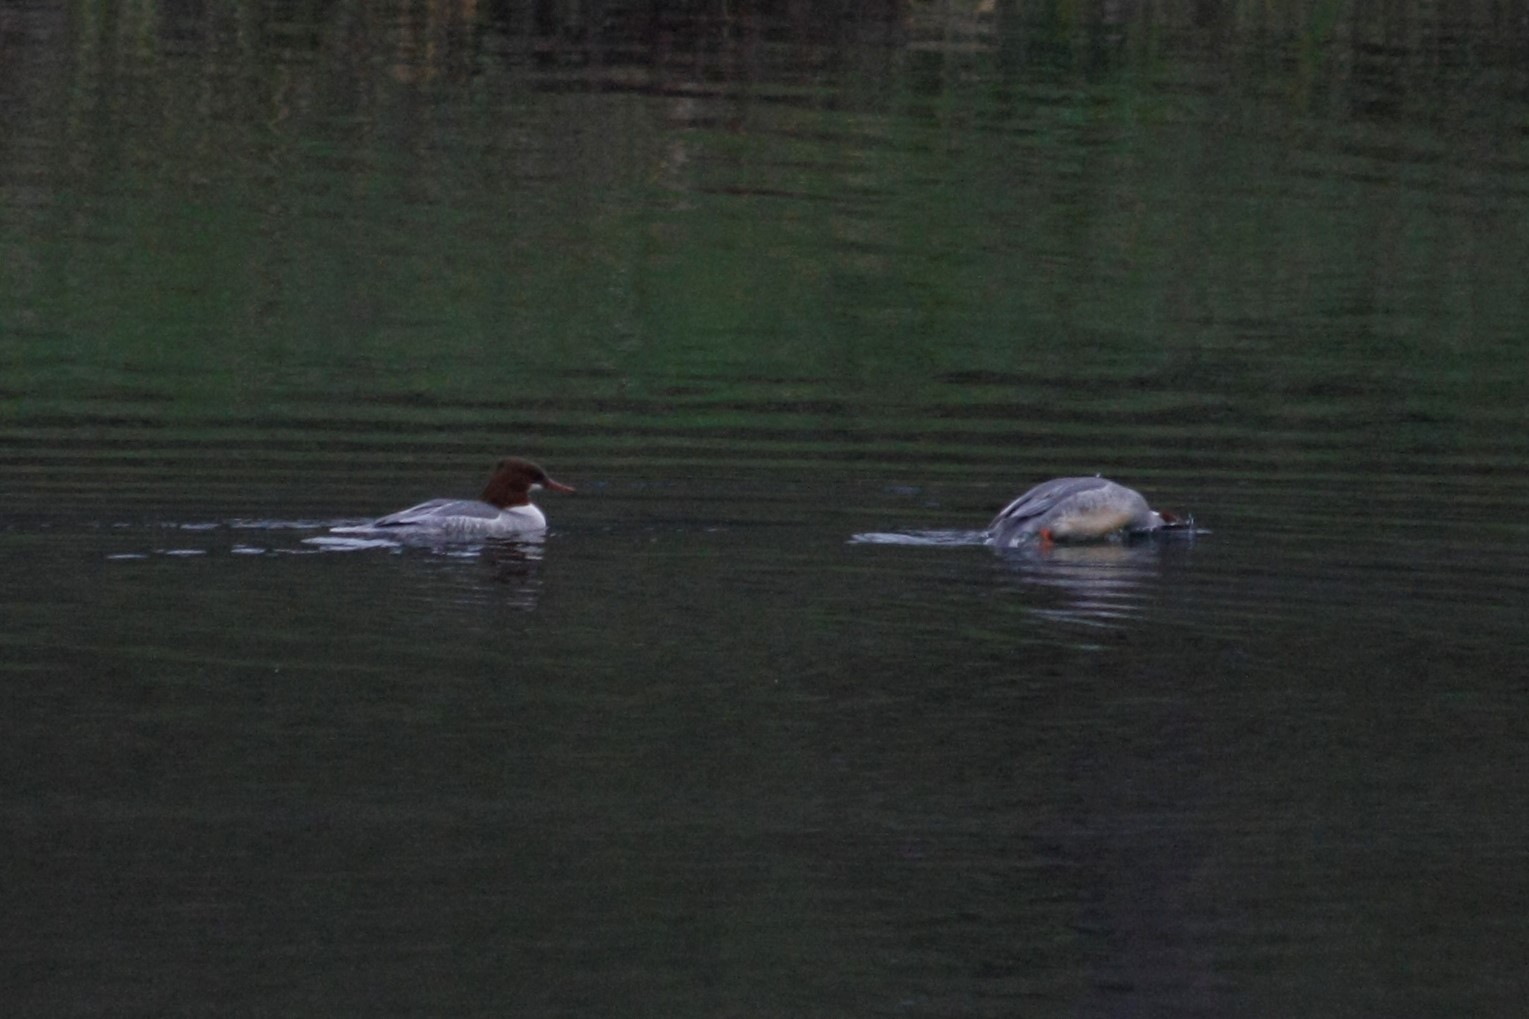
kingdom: Animalia
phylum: Chordata
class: Aves
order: Anseriformes
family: Anatidae
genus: Mergus
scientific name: Mergus merganser
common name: Common merganser
